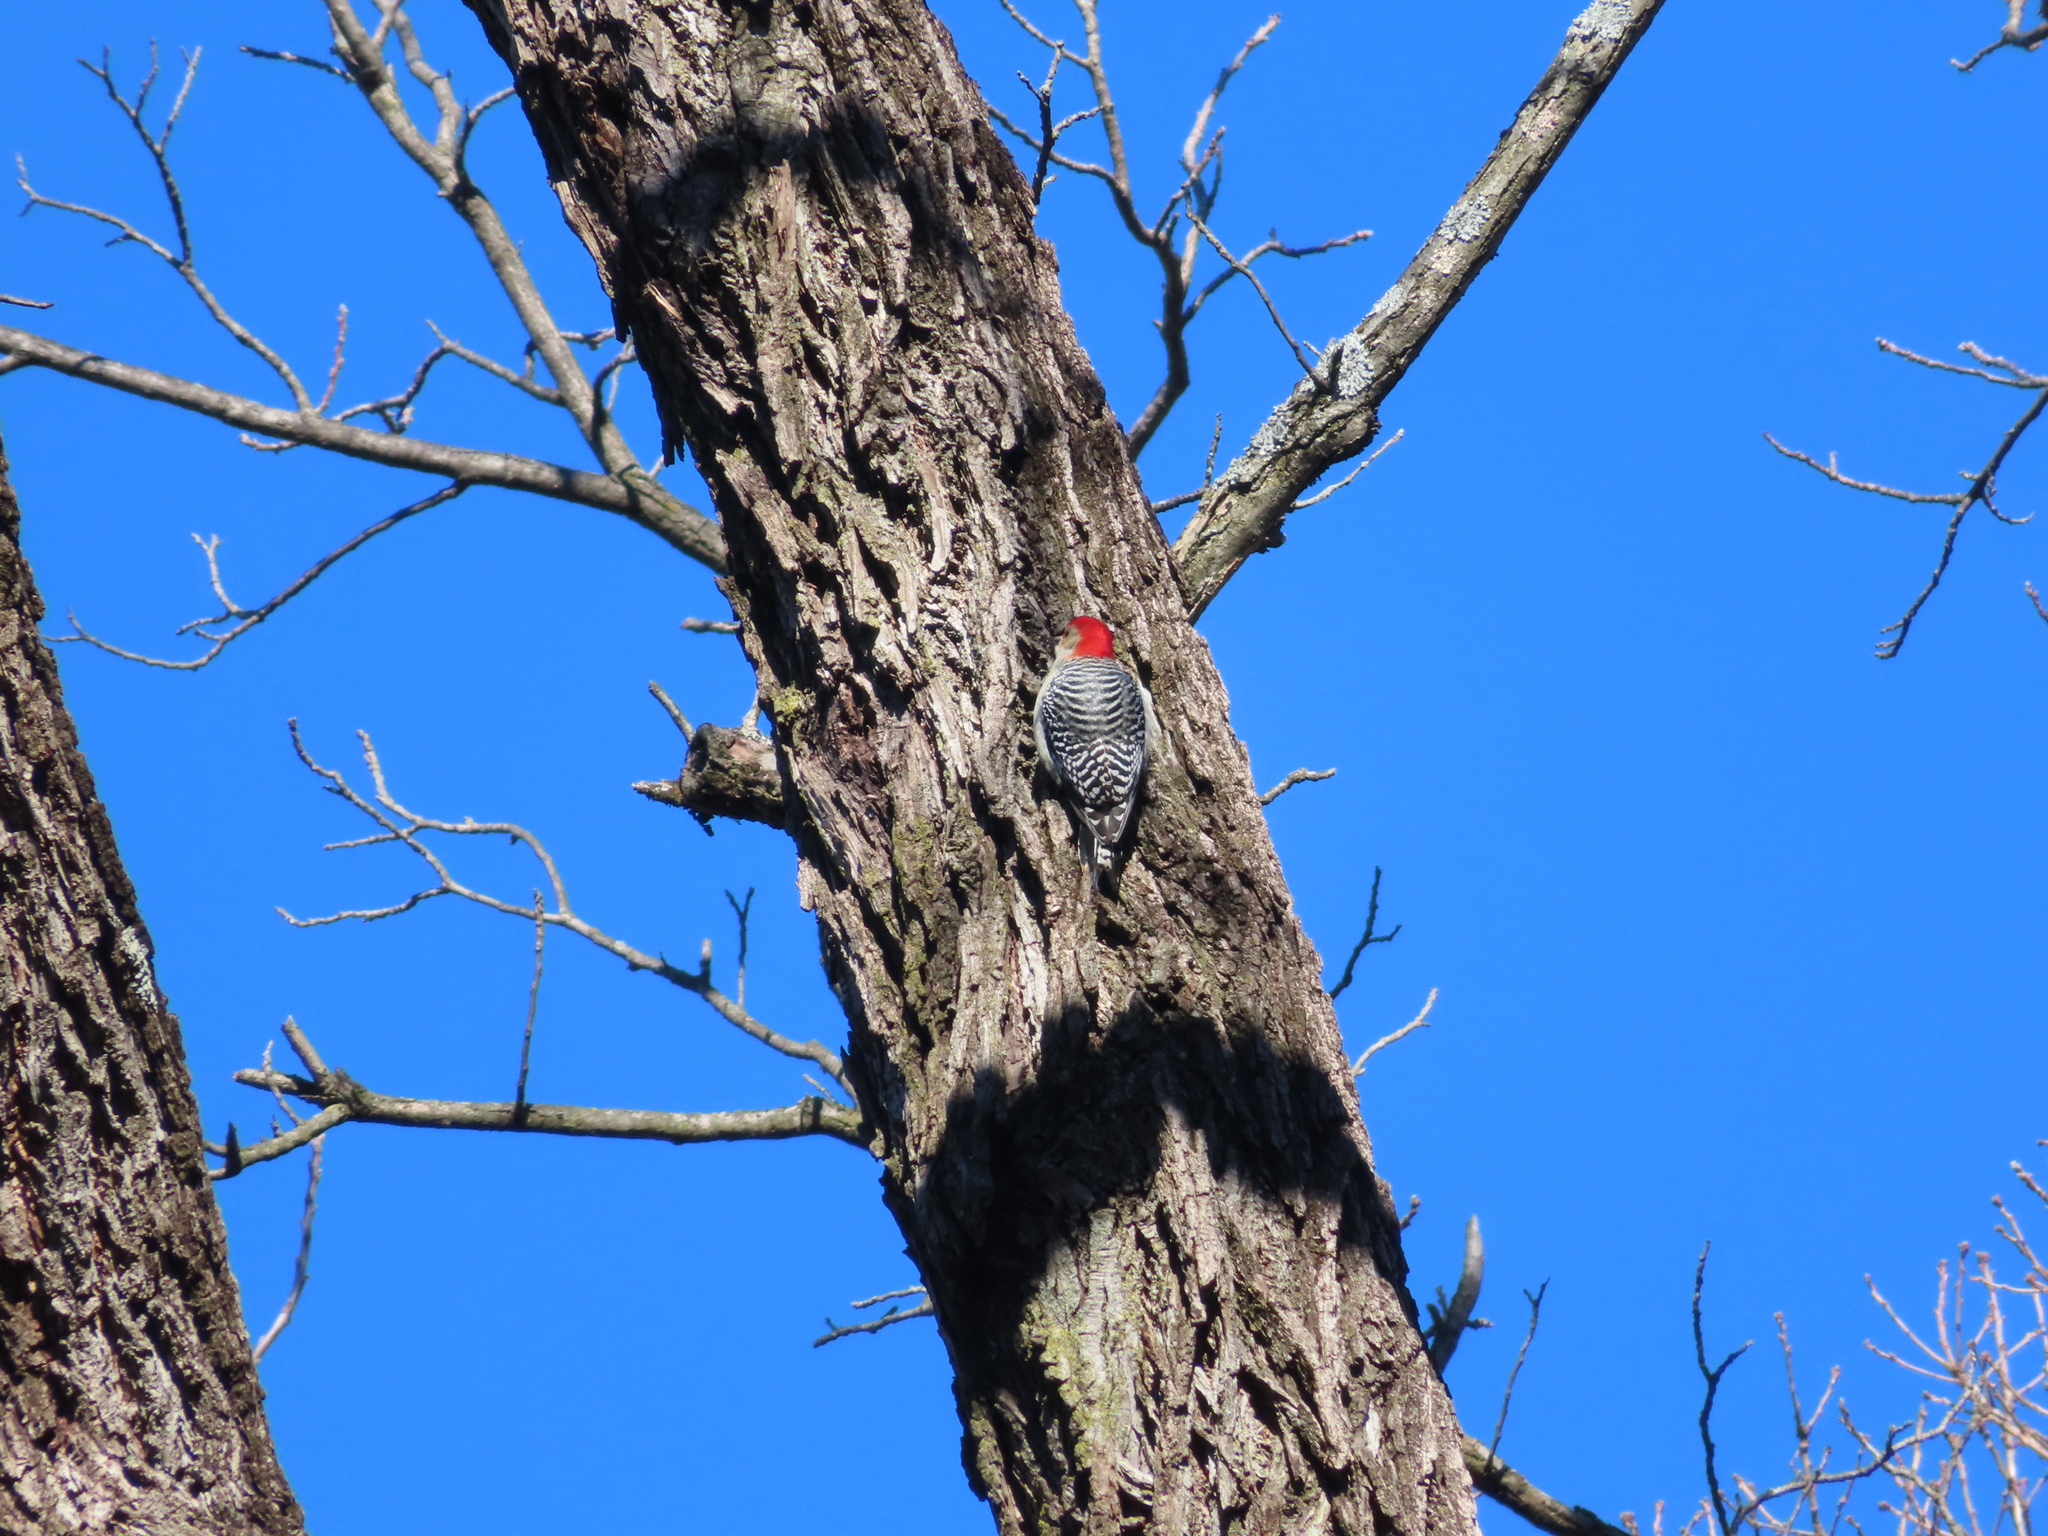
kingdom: Animalia
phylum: Chordata
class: Aves
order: Piciformes
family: Picidae
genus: Melanerpes
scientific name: Melanerpes carolinus
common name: Red-bellied woodpecker
